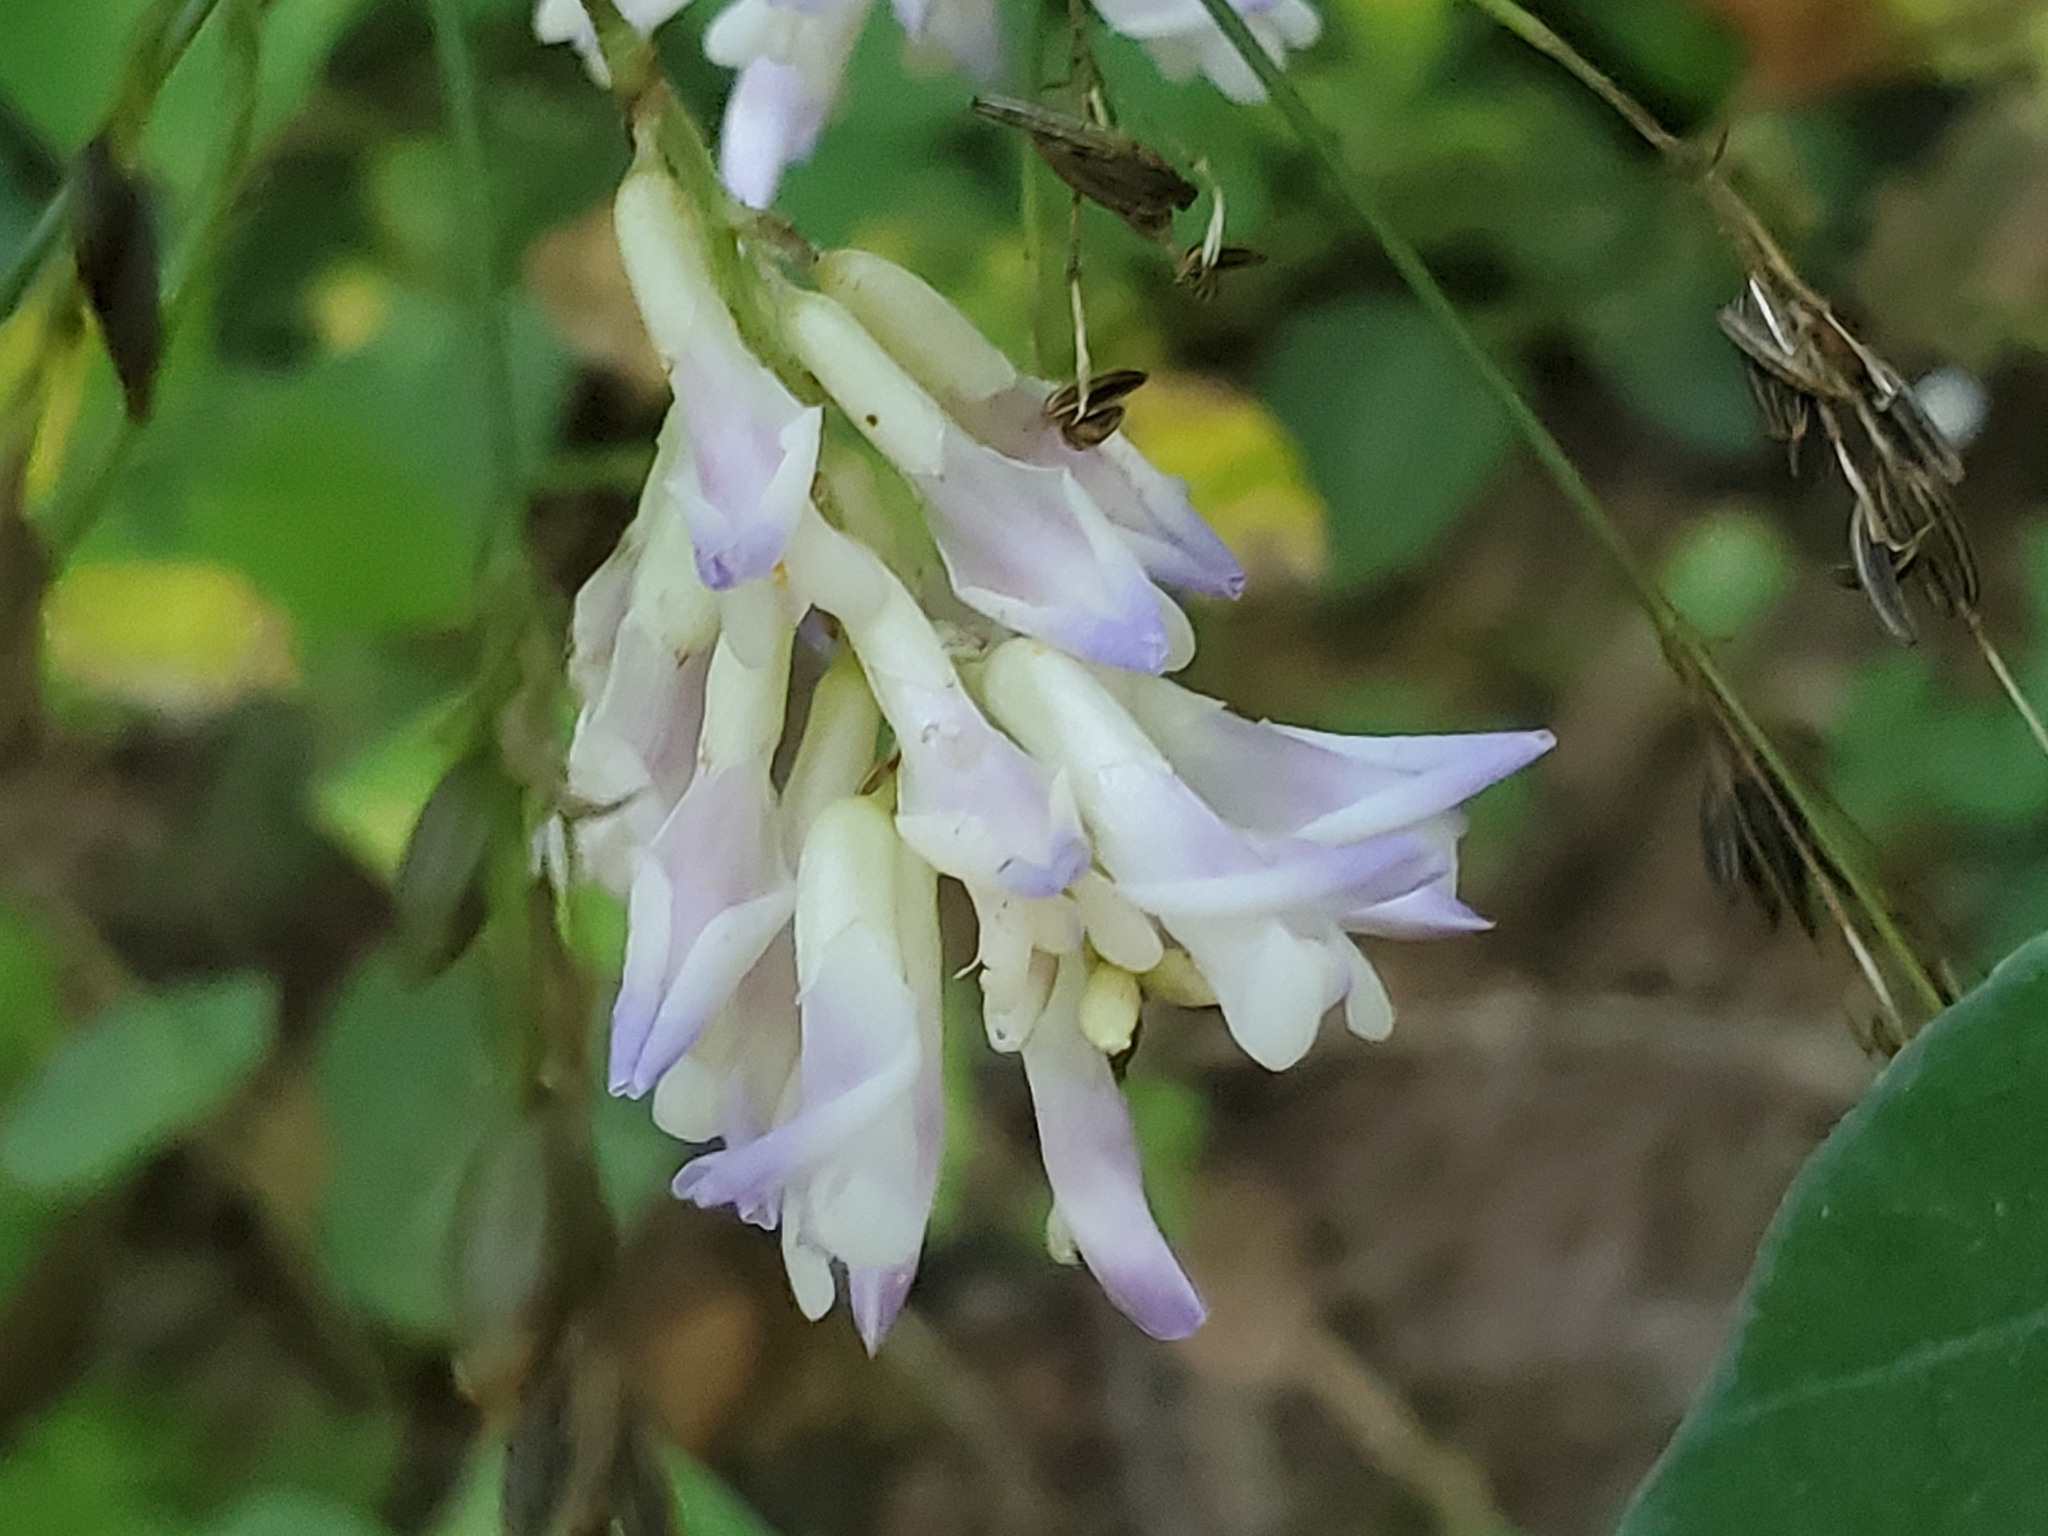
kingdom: Plantae
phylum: Tracheophyta
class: Magnoliopsida
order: Fabales
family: Fabaceae
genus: Amphicarpaea
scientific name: Amphicarpaea bracteata
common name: American hog peanut
